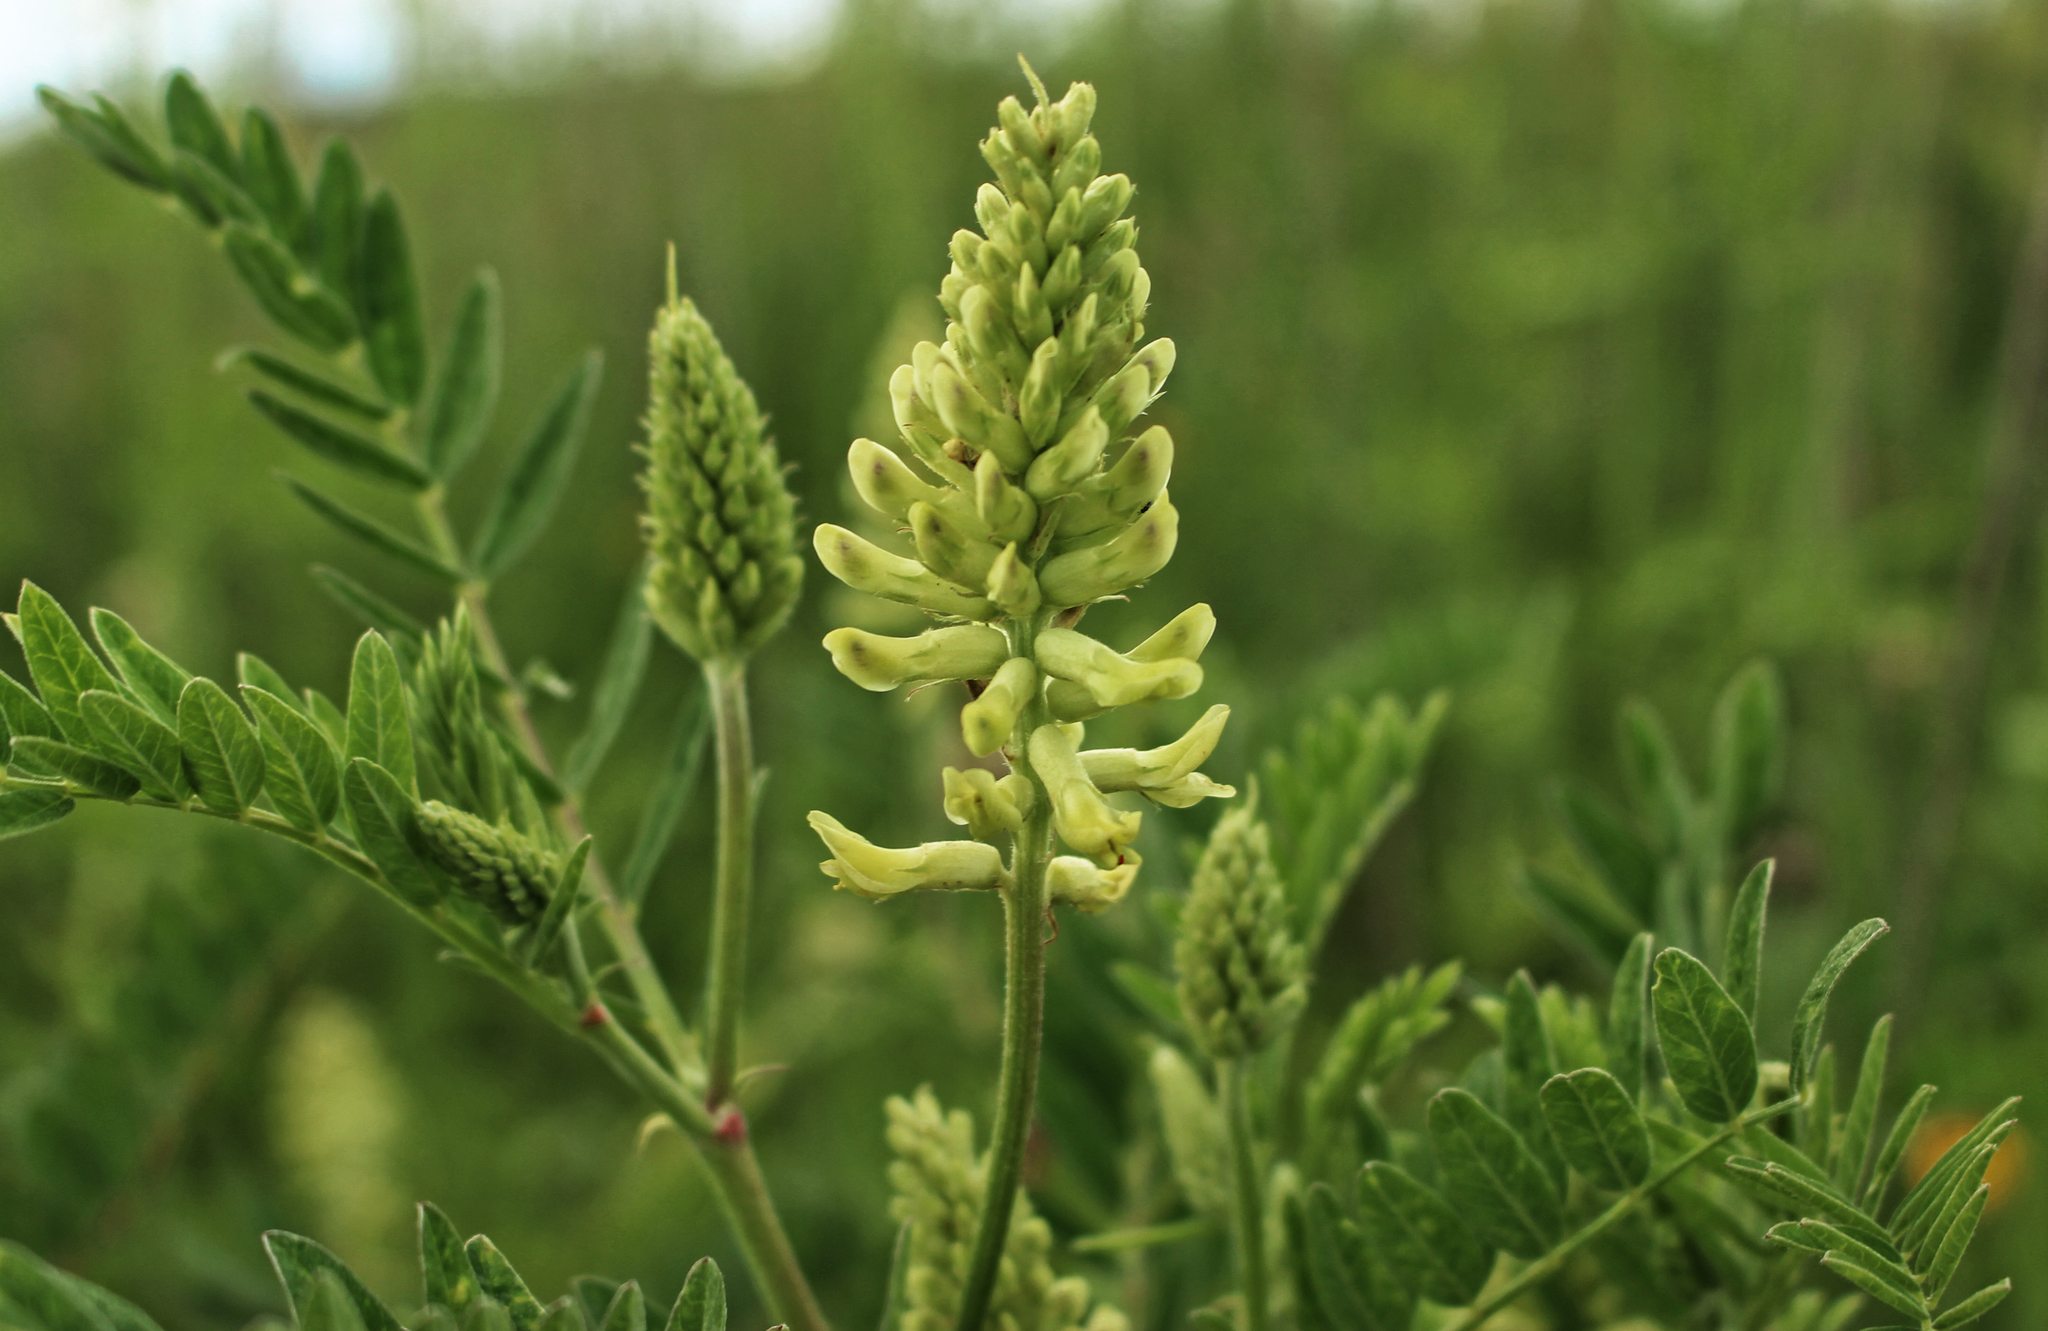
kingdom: Plantae
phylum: Tracheophyta
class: Magnoliopsida
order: Fabales
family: Fabaceae
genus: Astragalus
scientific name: Astragalus canadensis
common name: Canada milk-vetch
